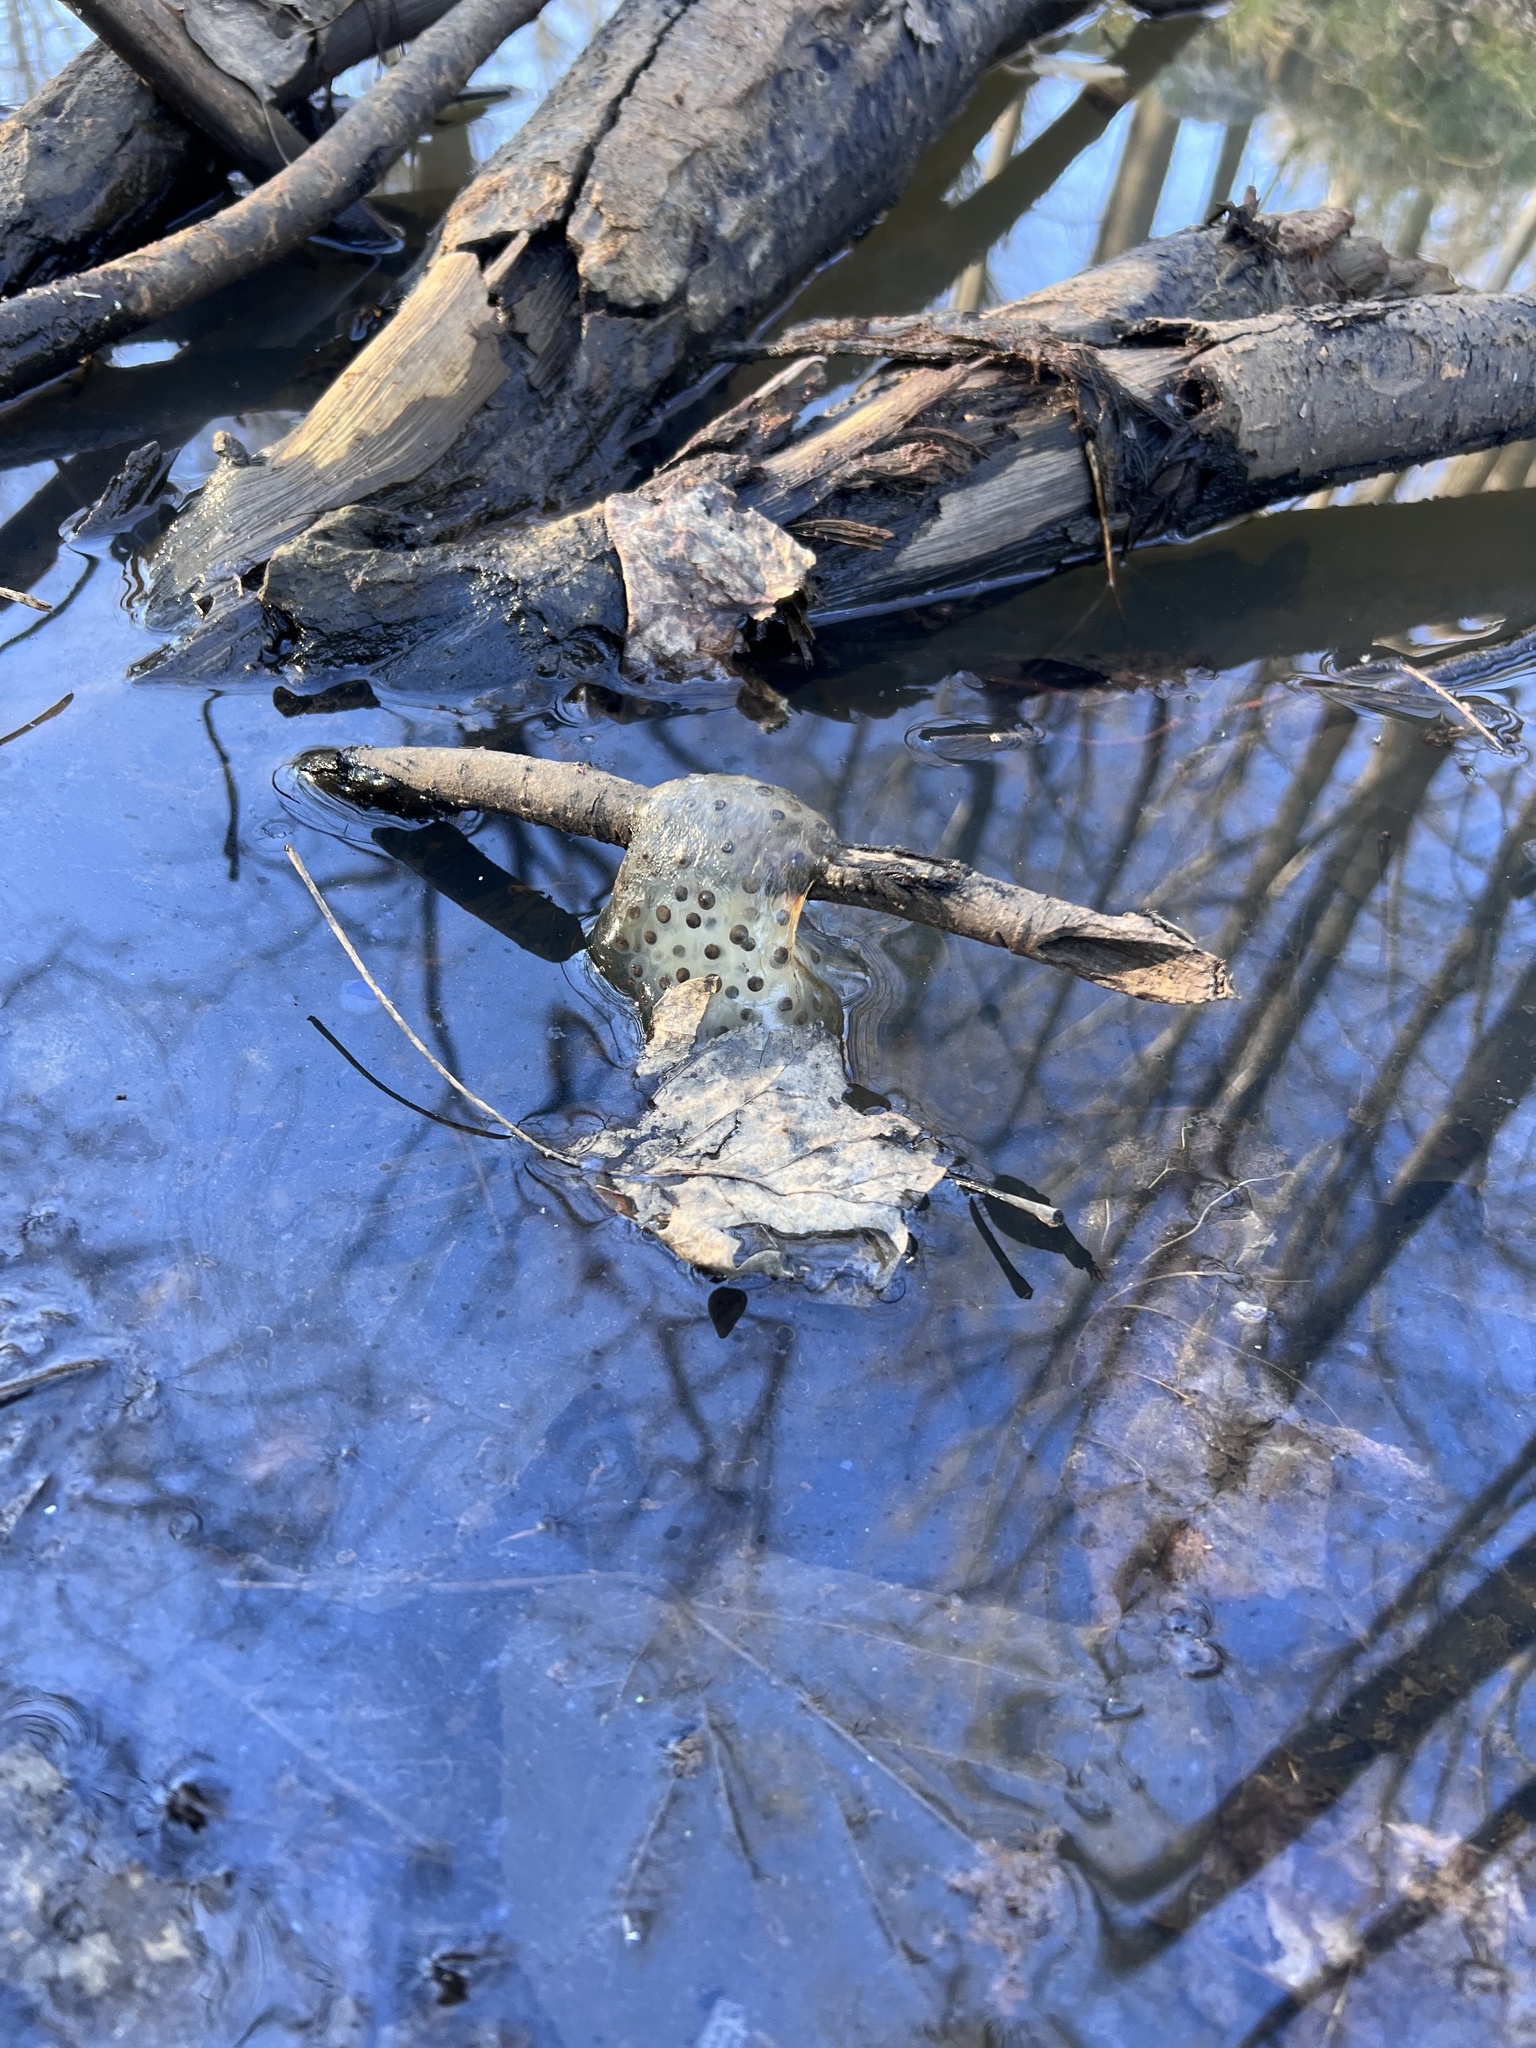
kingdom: Animalia
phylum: Chordata
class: Amphibia
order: Caudata
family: Ambystomatidae
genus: Ambystoma
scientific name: Ambystoma maculatum
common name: Spotted salamander
